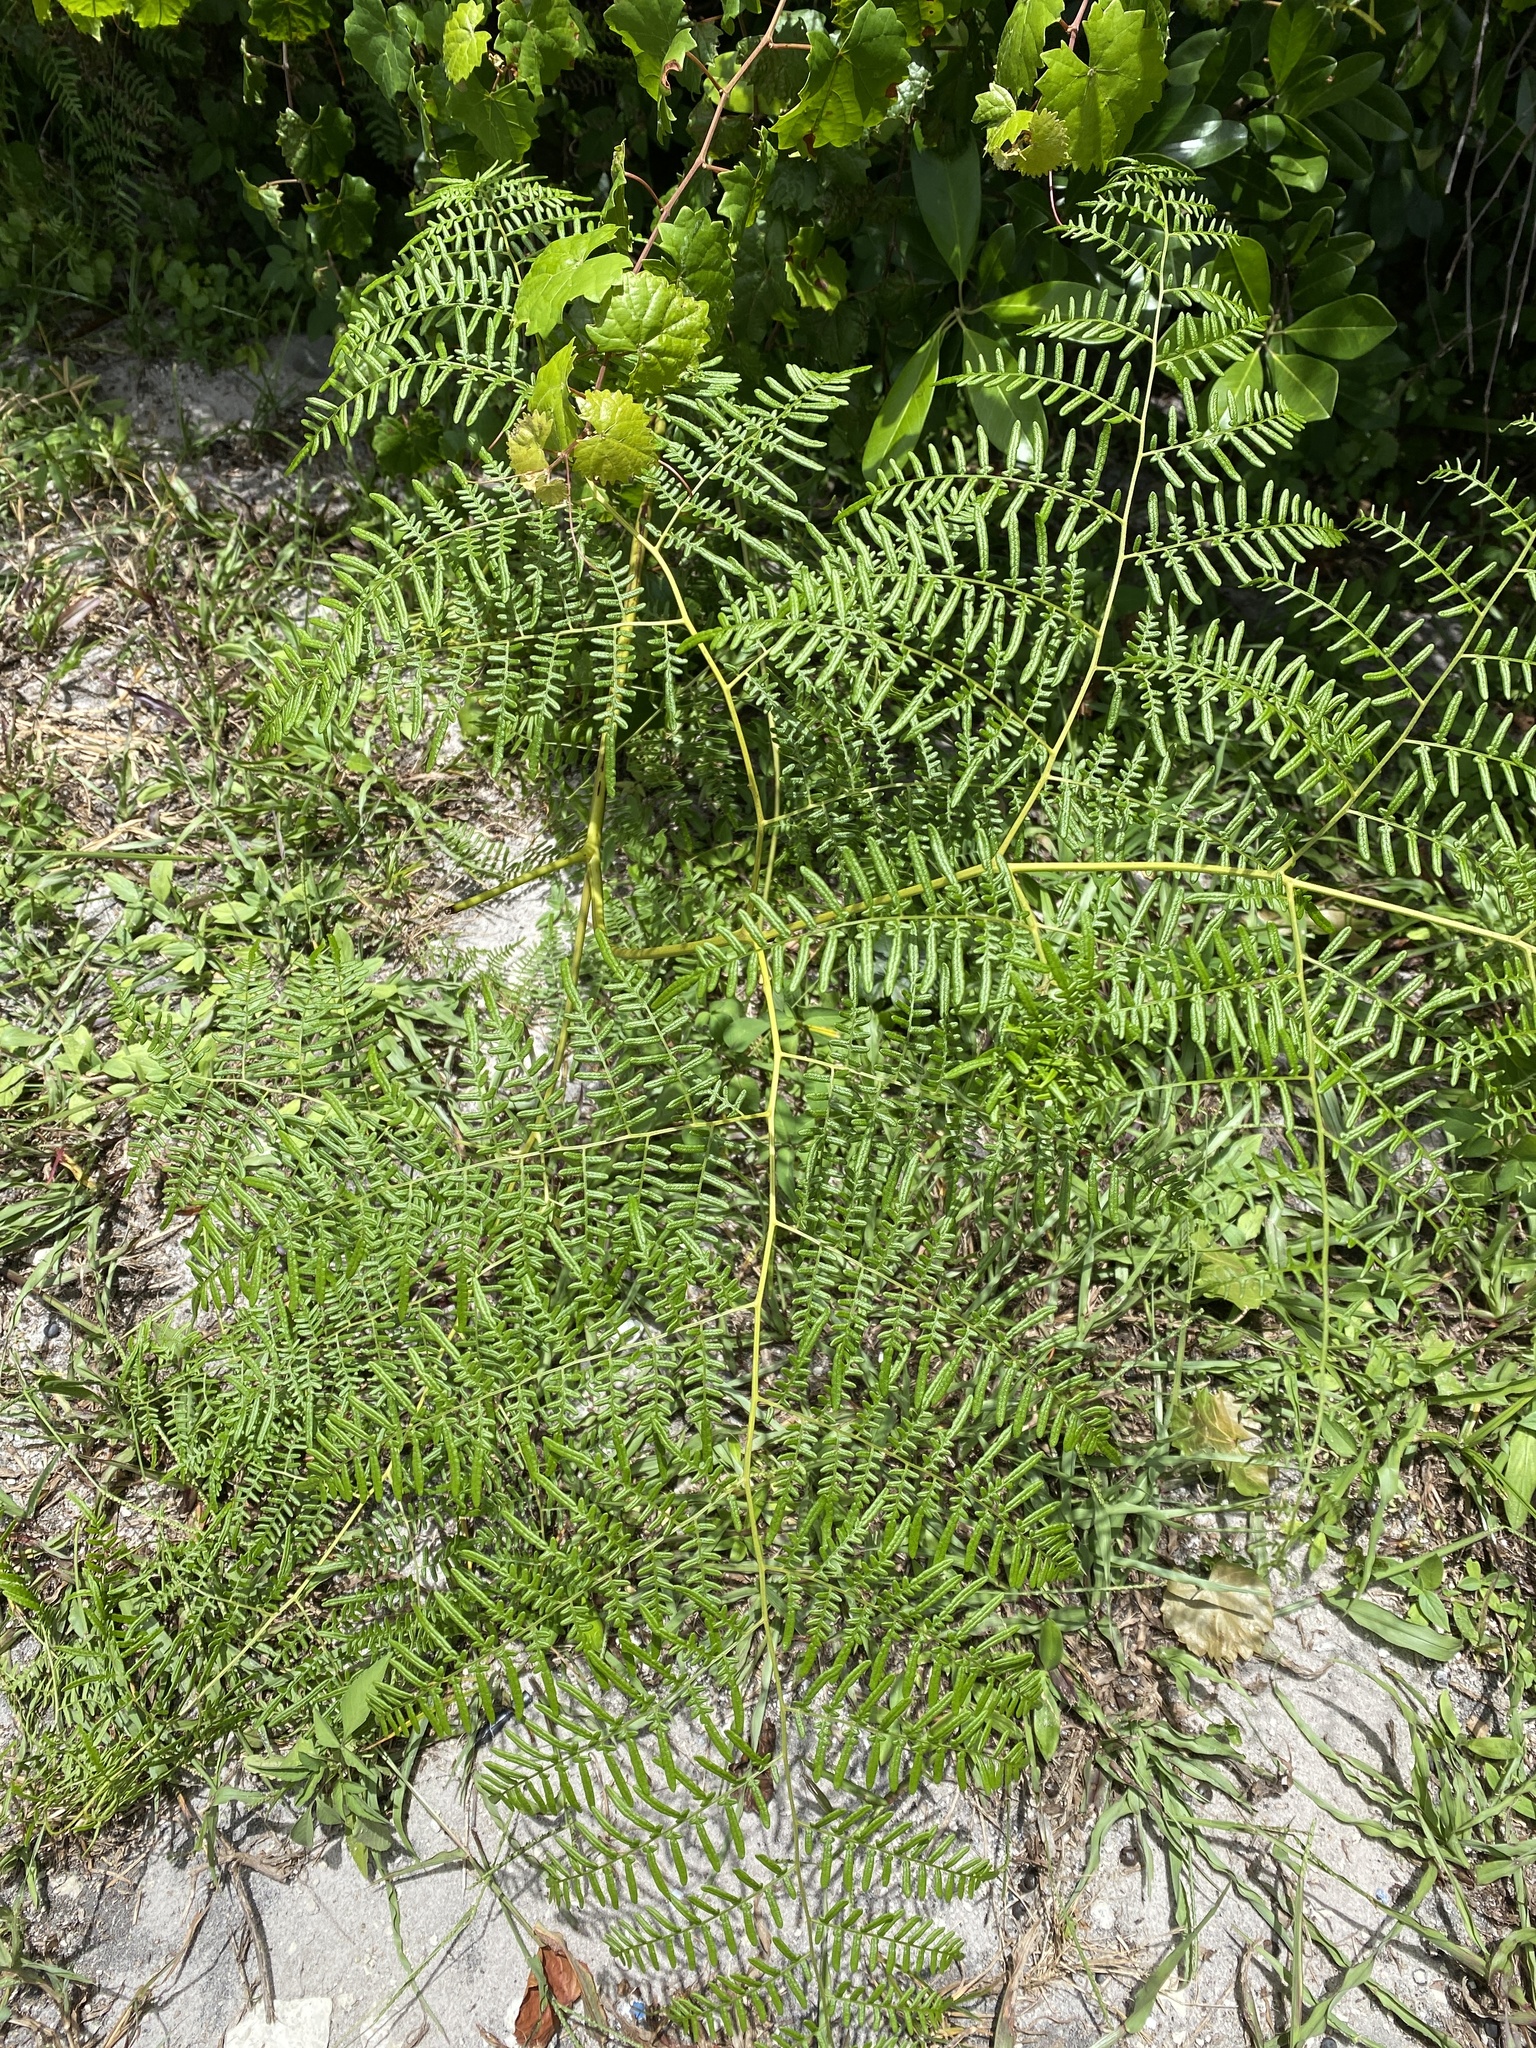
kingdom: Plantae
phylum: Tracheophyta
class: Polypodiopsida
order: Polypodiales
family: Dennstaedtiaceae
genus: Pteridium
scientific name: Pteridium caudatum
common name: Southern bracken fern
